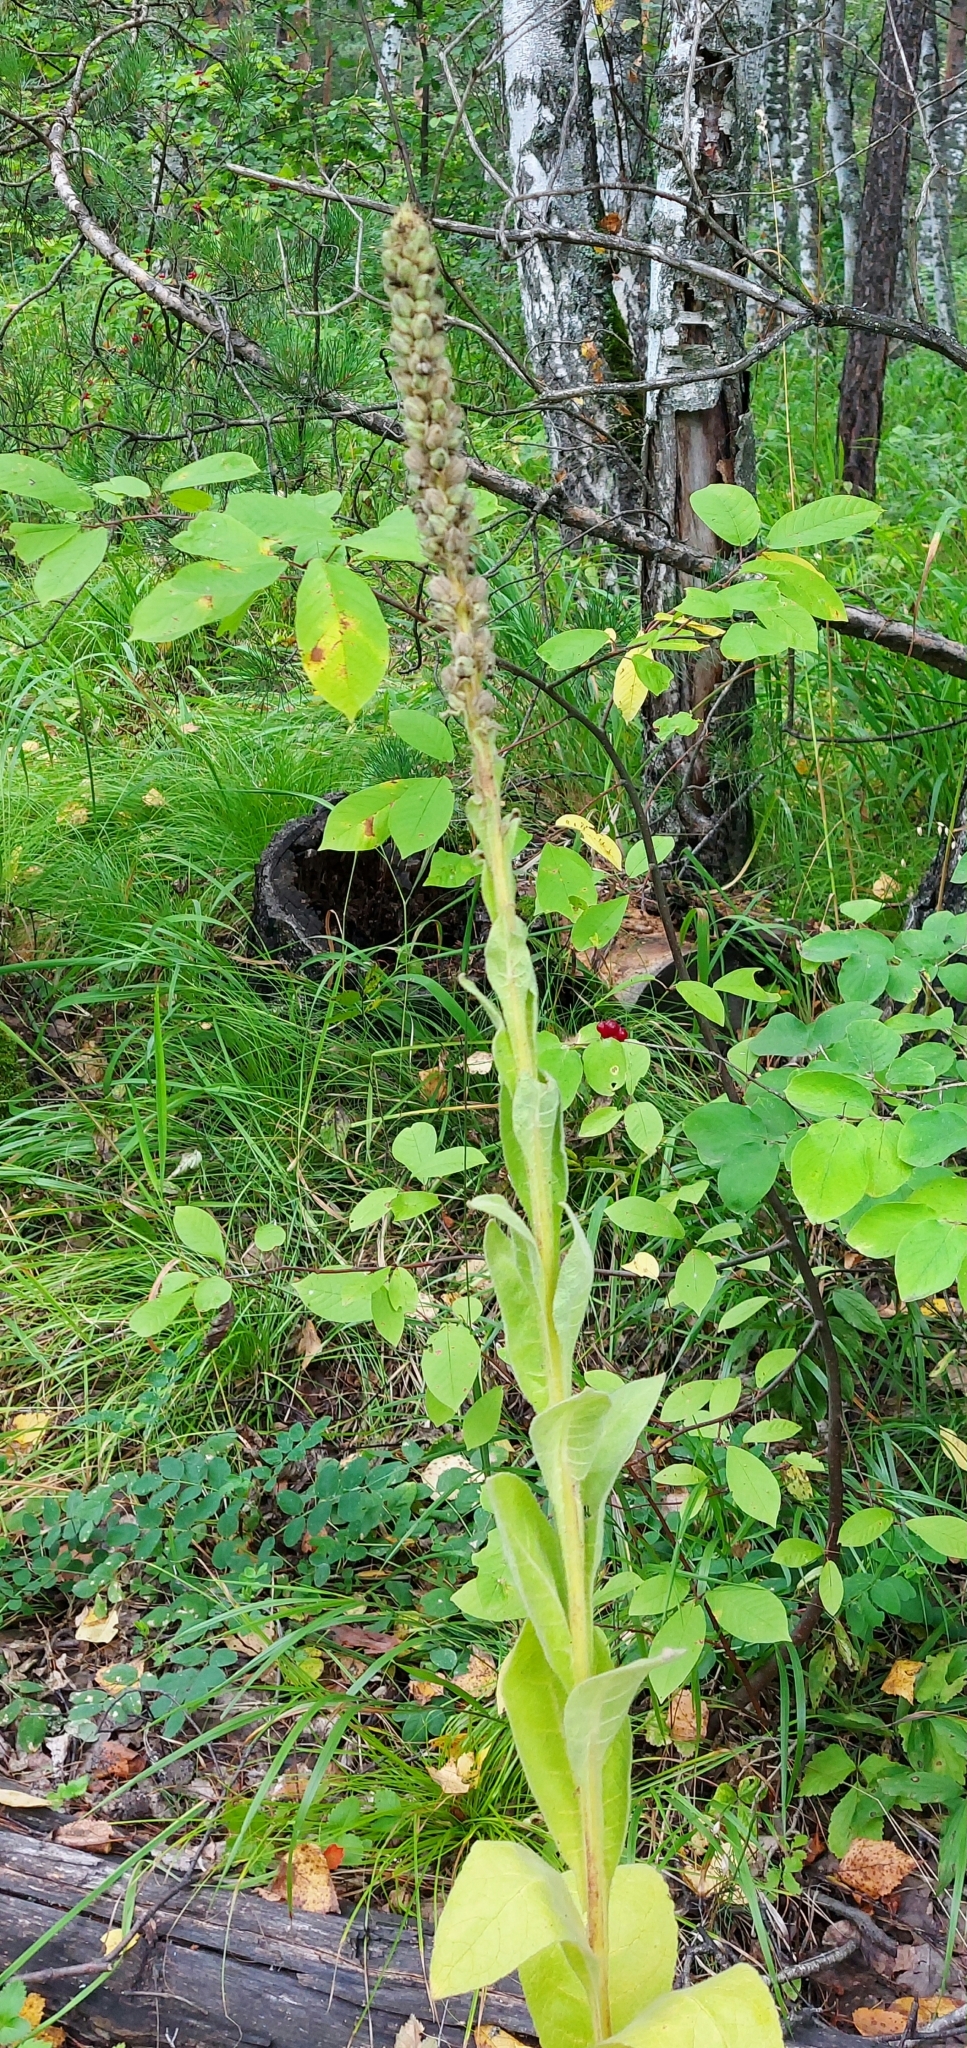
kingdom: Plantae
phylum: Tracheophyta
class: Magnoliopsida
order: Lamiales
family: Scrophulariaceae
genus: Verbascum
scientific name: Verbascum thapsus
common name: Common mullein
